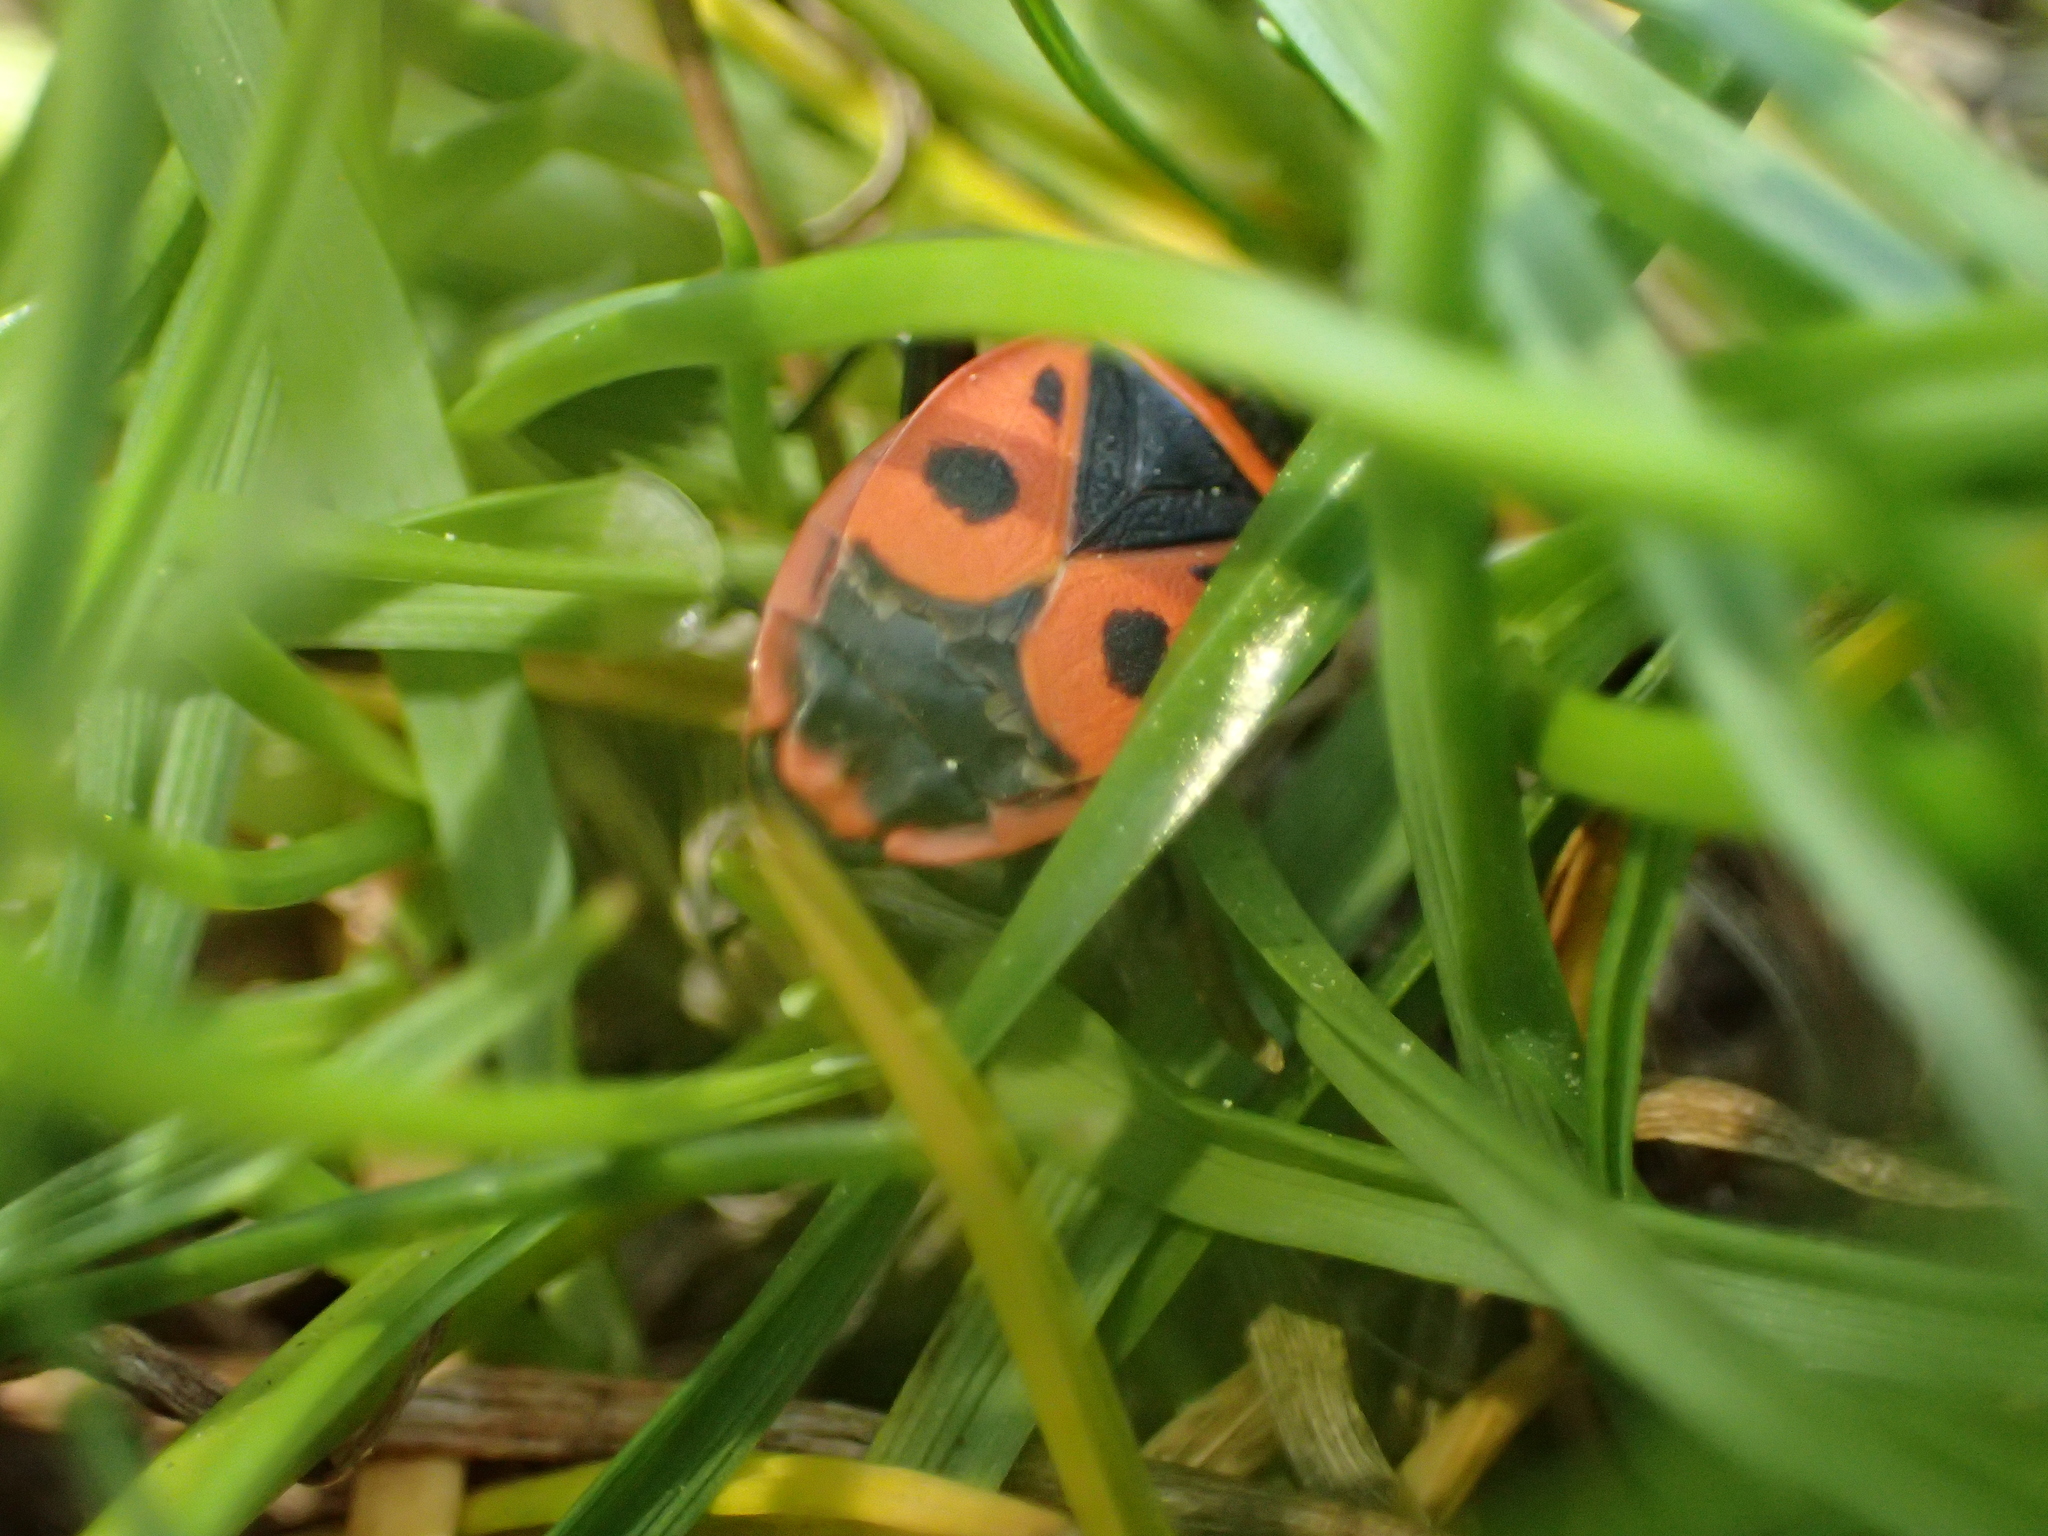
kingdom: Animalia
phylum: Arthropoda
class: Insecta
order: Hemiptera
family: Pyrrhocoridae
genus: Pyrrhocoris
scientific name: Pyrrhocoris apterus
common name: Firebug
